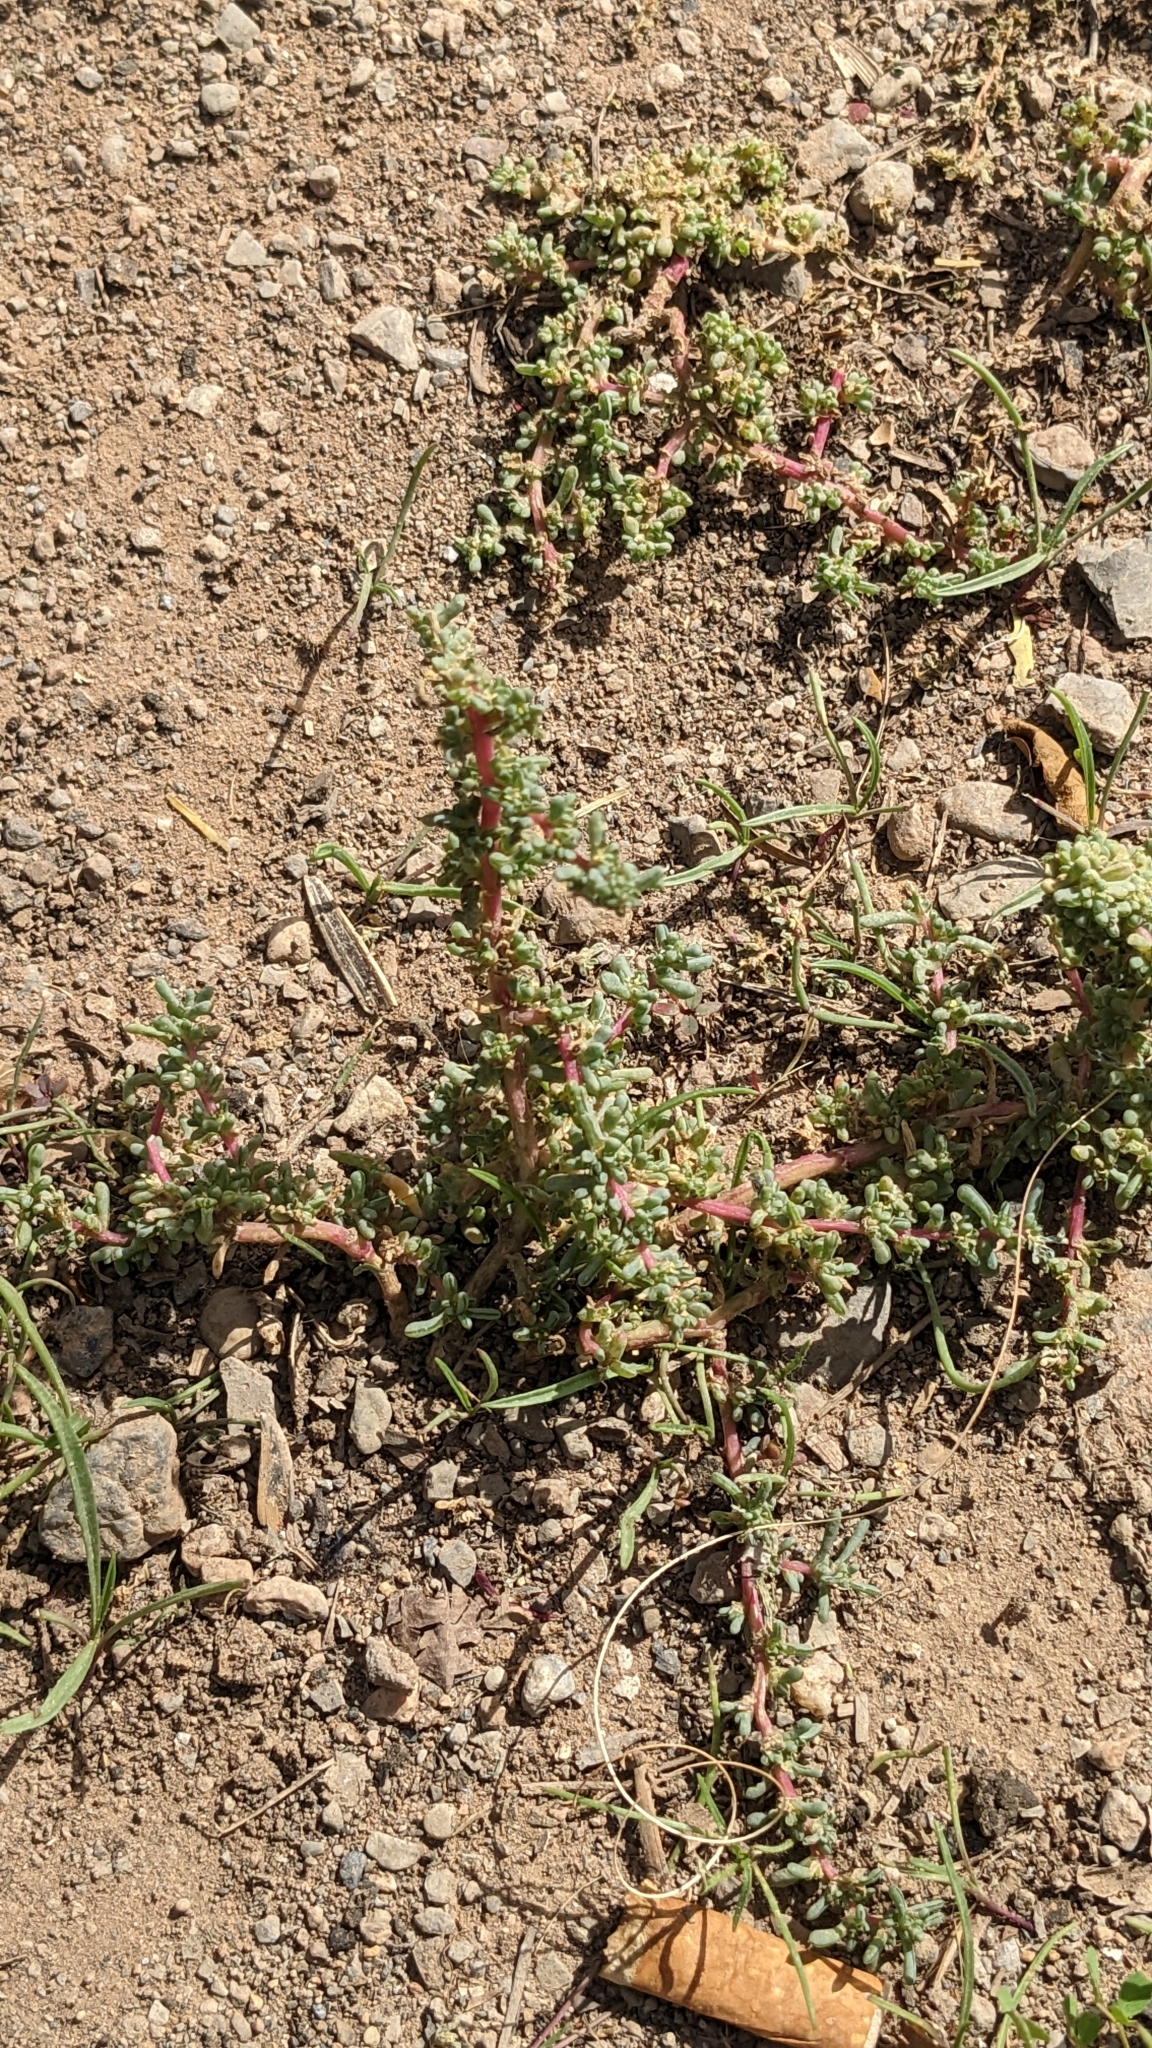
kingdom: Plantae
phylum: Tracheophyta
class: Magnoliopsida
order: Caryophyllales
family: Amaranthaceae
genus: Halogeton
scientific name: Halogeton sativus
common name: Barilla
